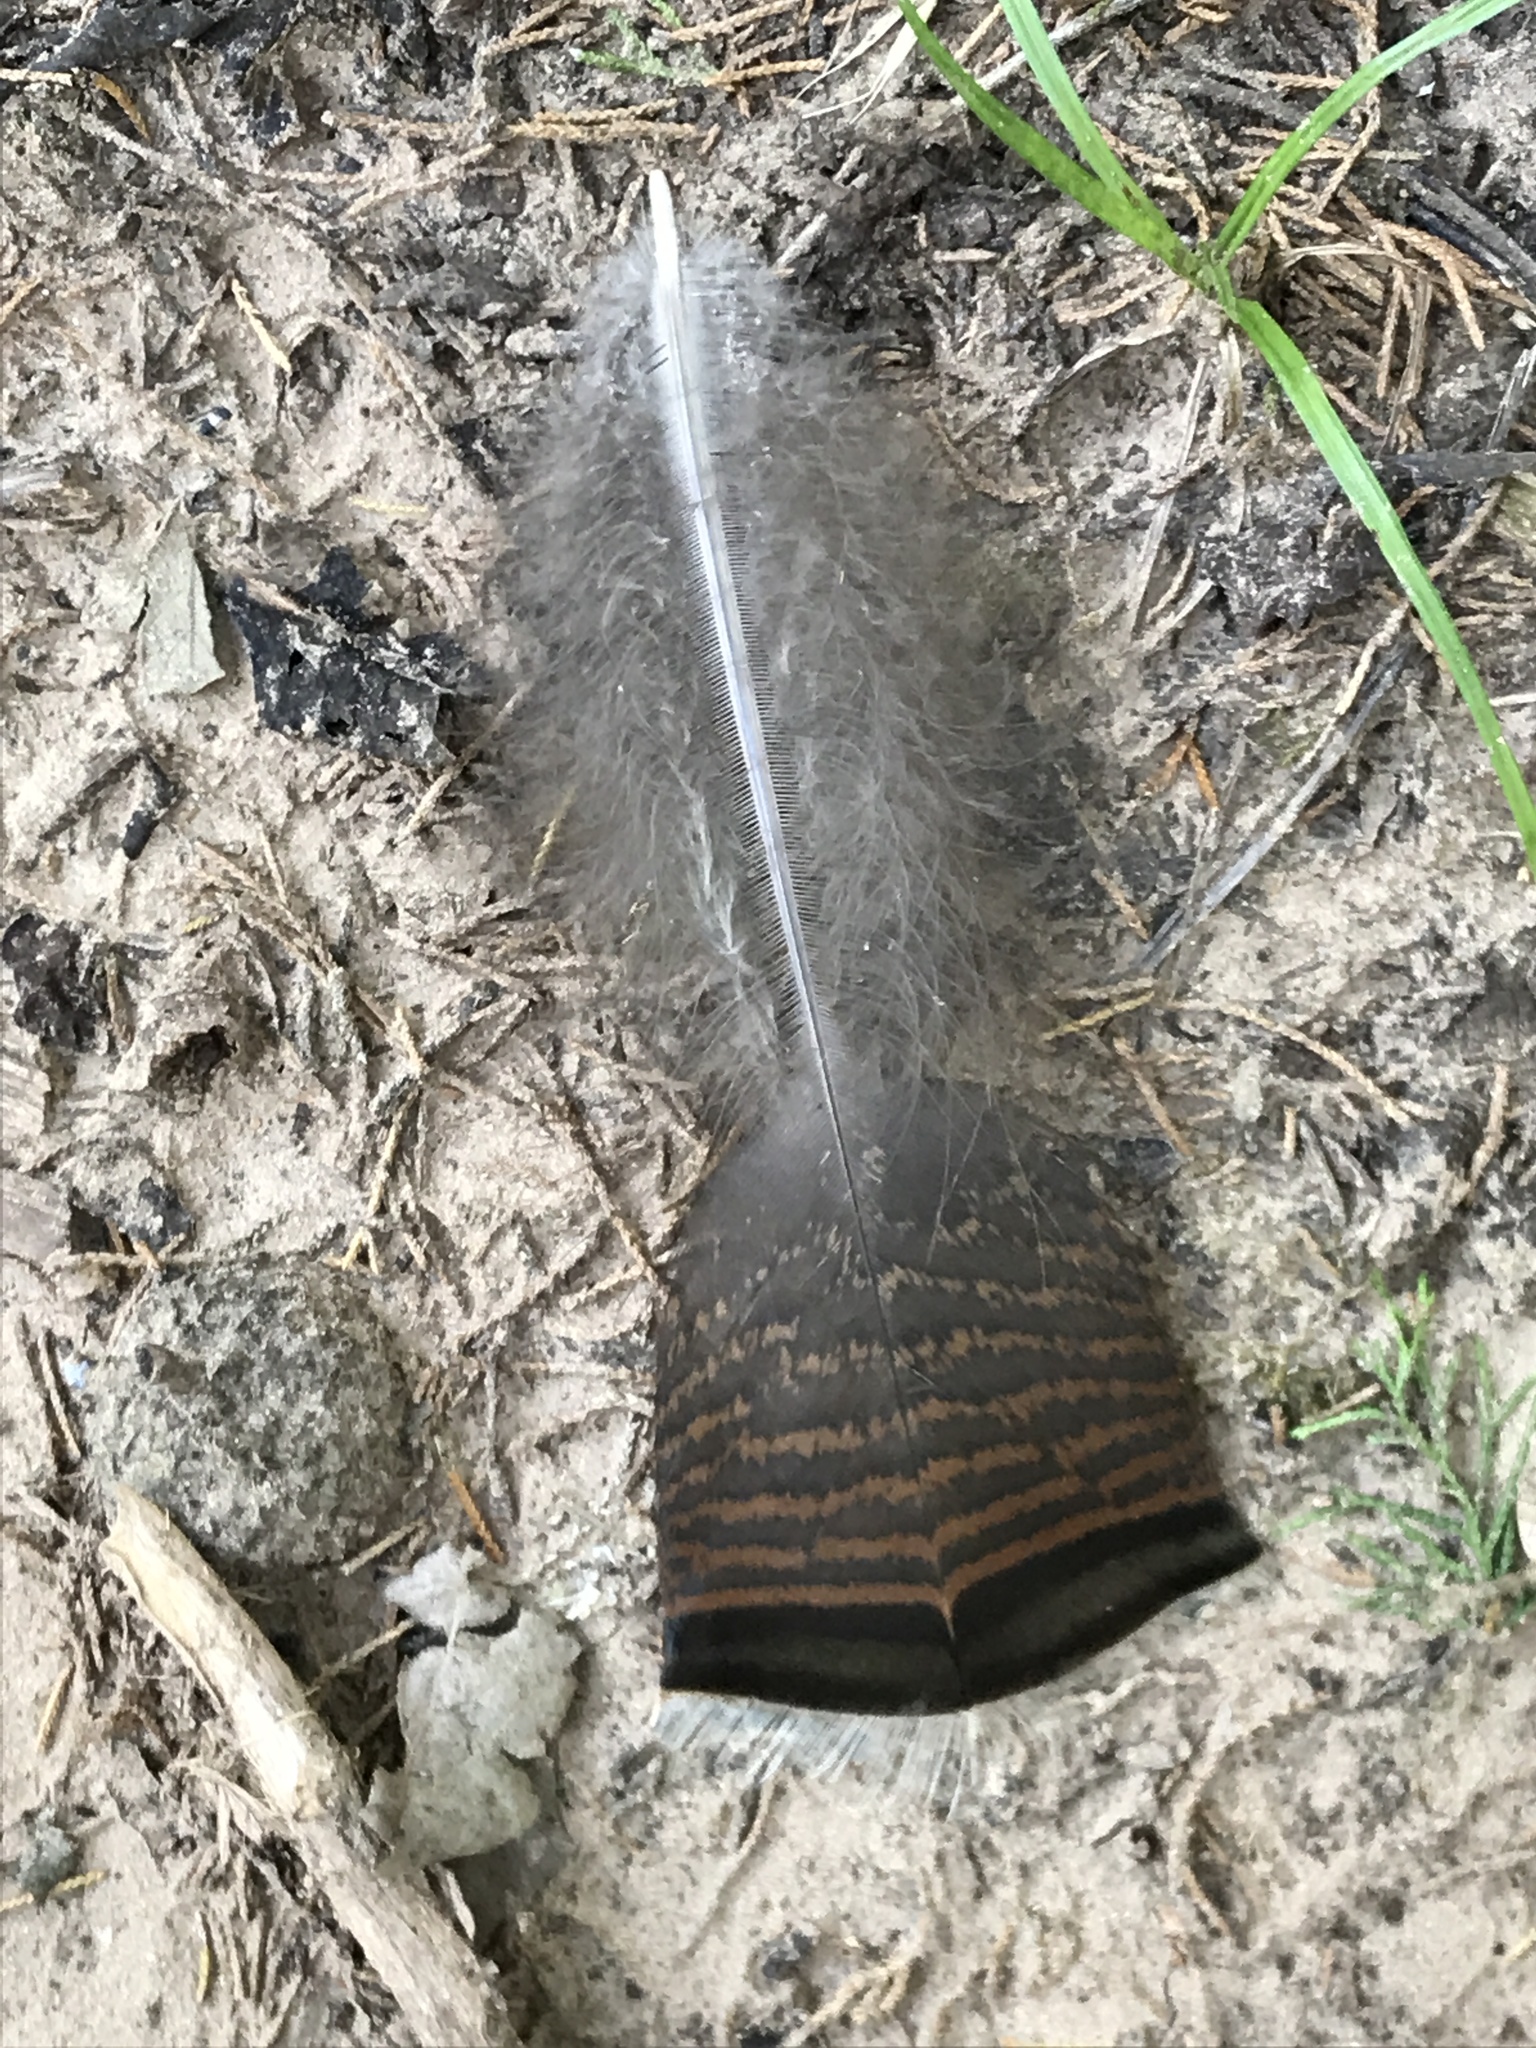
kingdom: Animalia
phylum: Chordata
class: Aves
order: Galliformes
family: Phasianidae
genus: Meleagris
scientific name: Meleagris gallopavo
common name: Wild turkey
